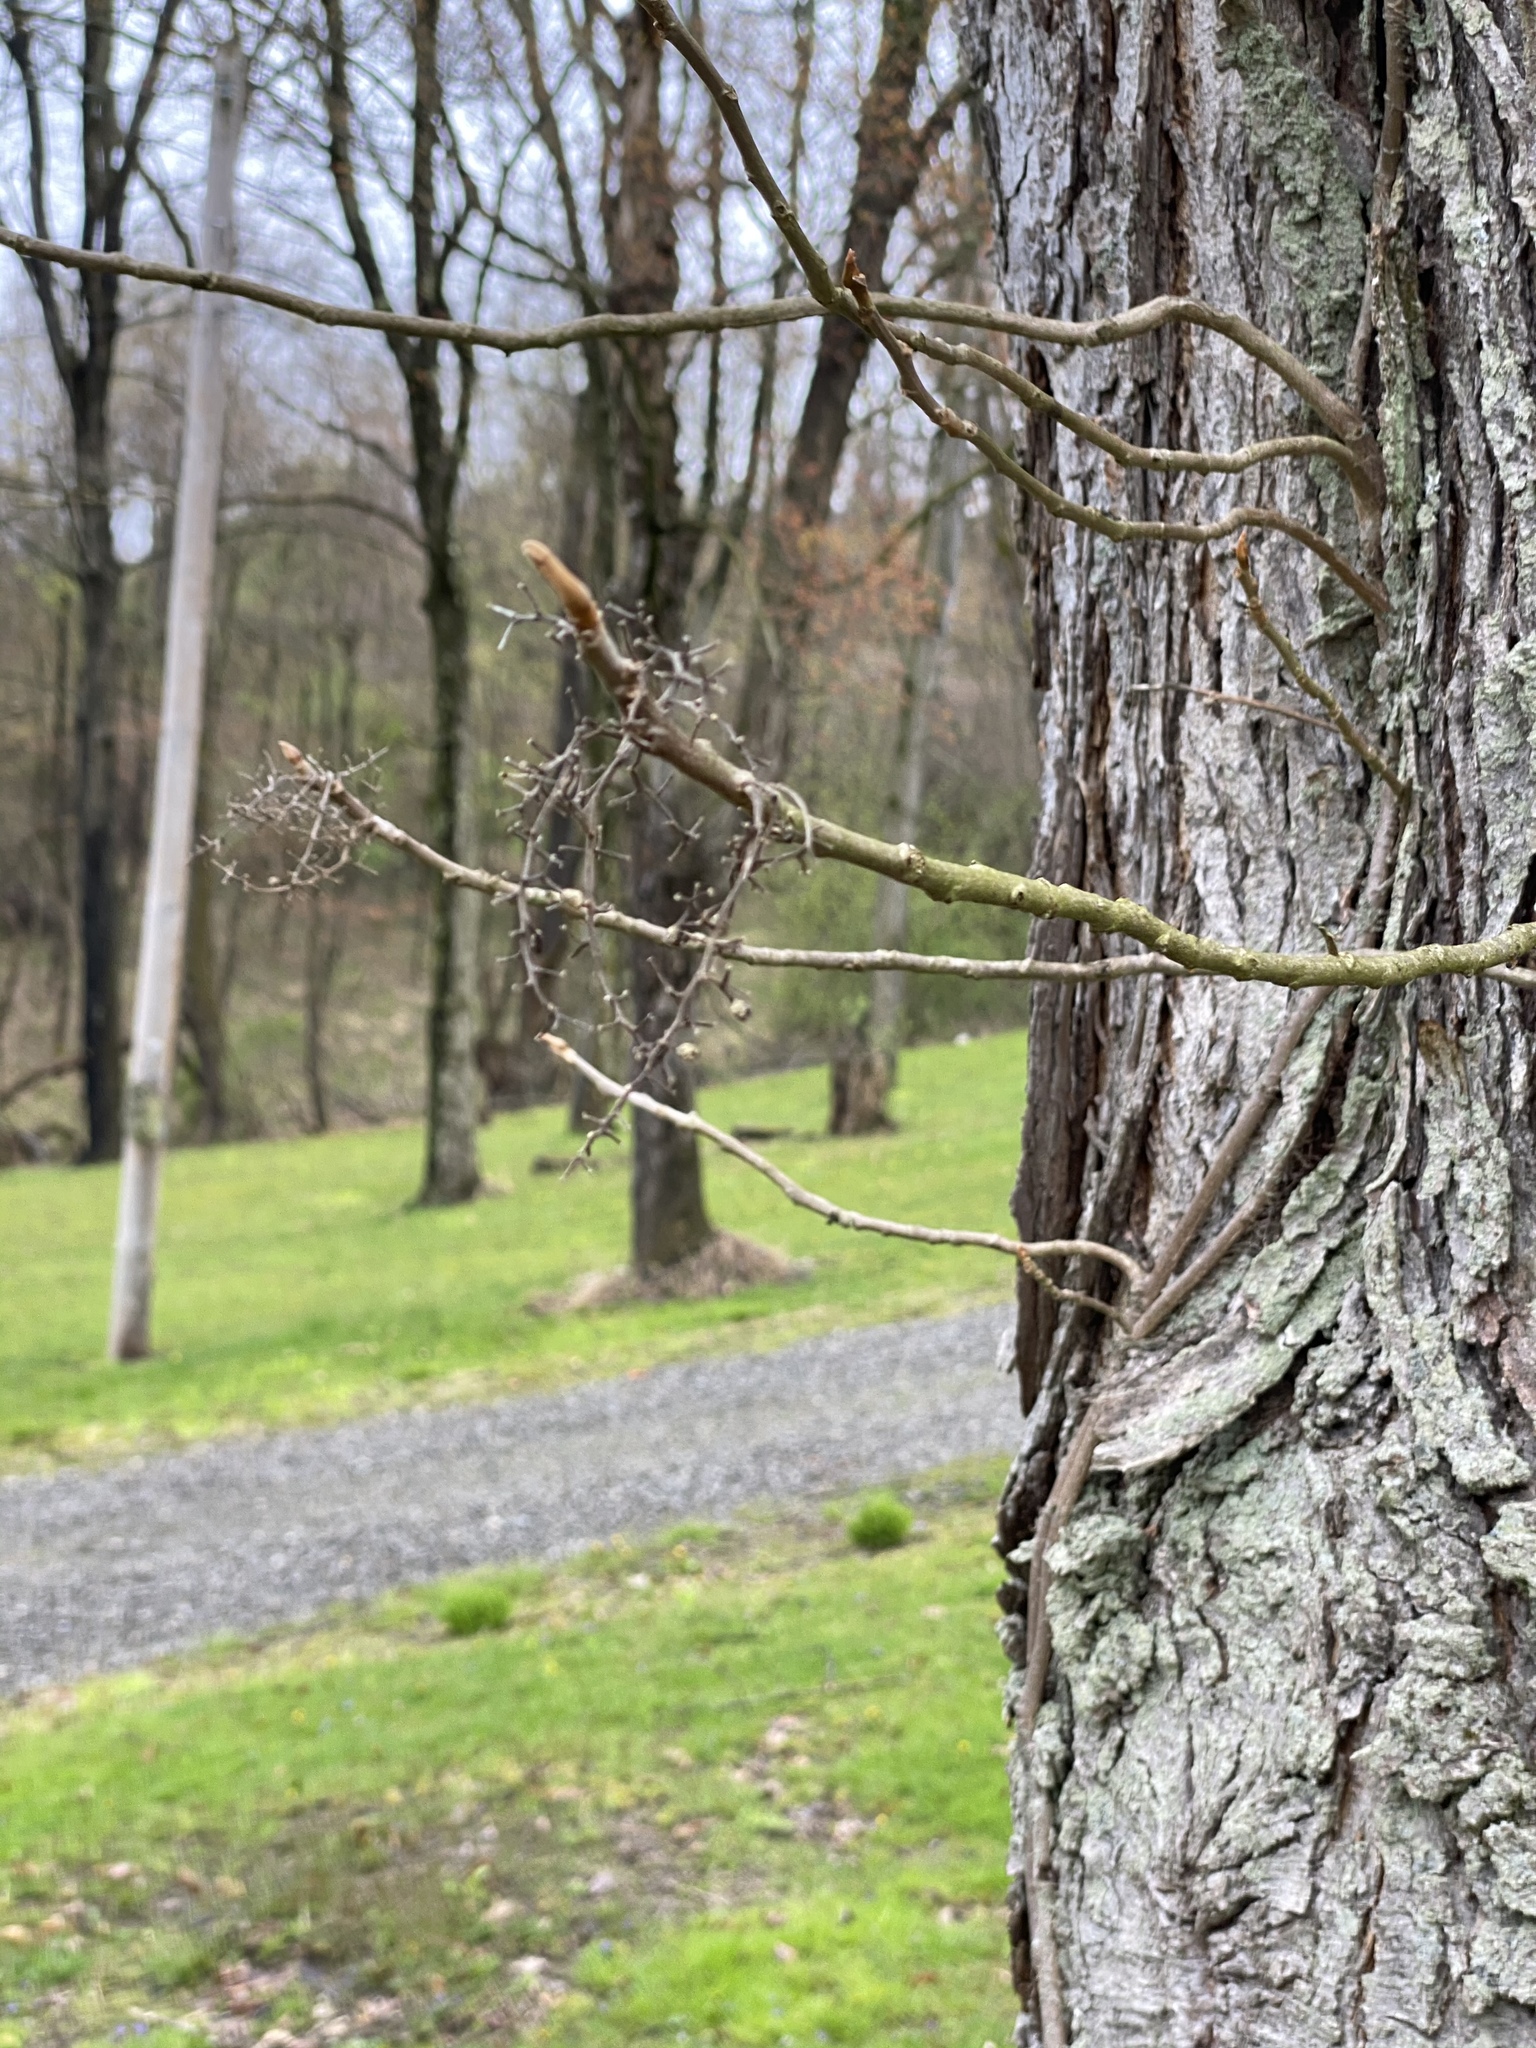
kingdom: Plantae
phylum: Tracheophyta
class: Magnoliopsida
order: Sapindales
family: Anacardiaceae
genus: Toxicodendron
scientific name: Toxicodendron radicans
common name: Poison ivy
